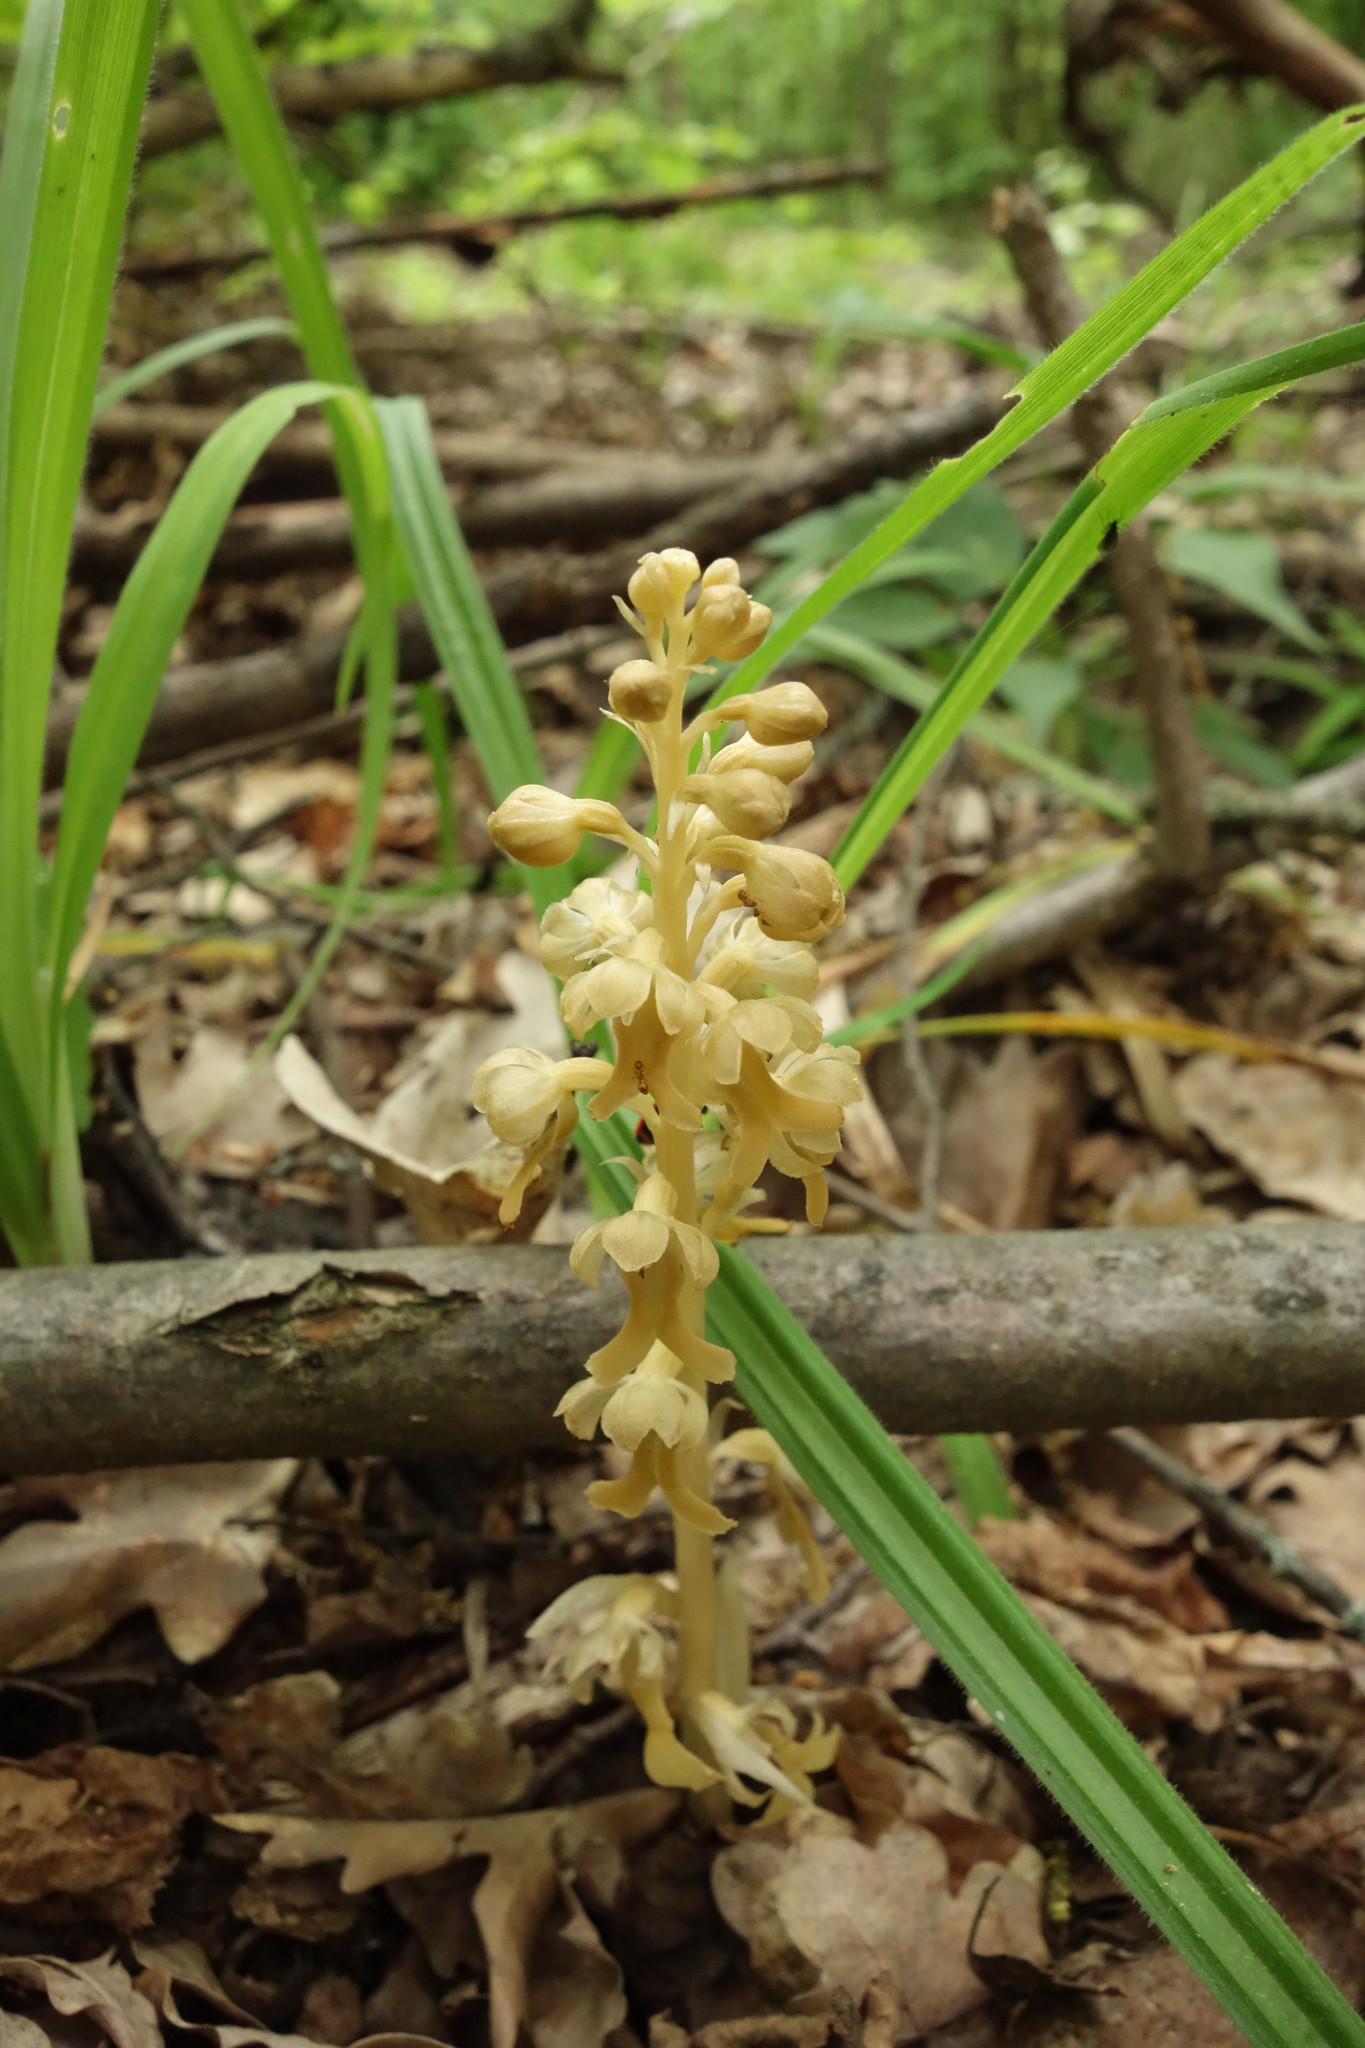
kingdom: Plantae
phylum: Tracheophyta
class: Liliopsida
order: Asparagales
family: Orchidaceae
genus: Neottia
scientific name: Neottia nidus-avis
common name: Bird's-nest orchid
